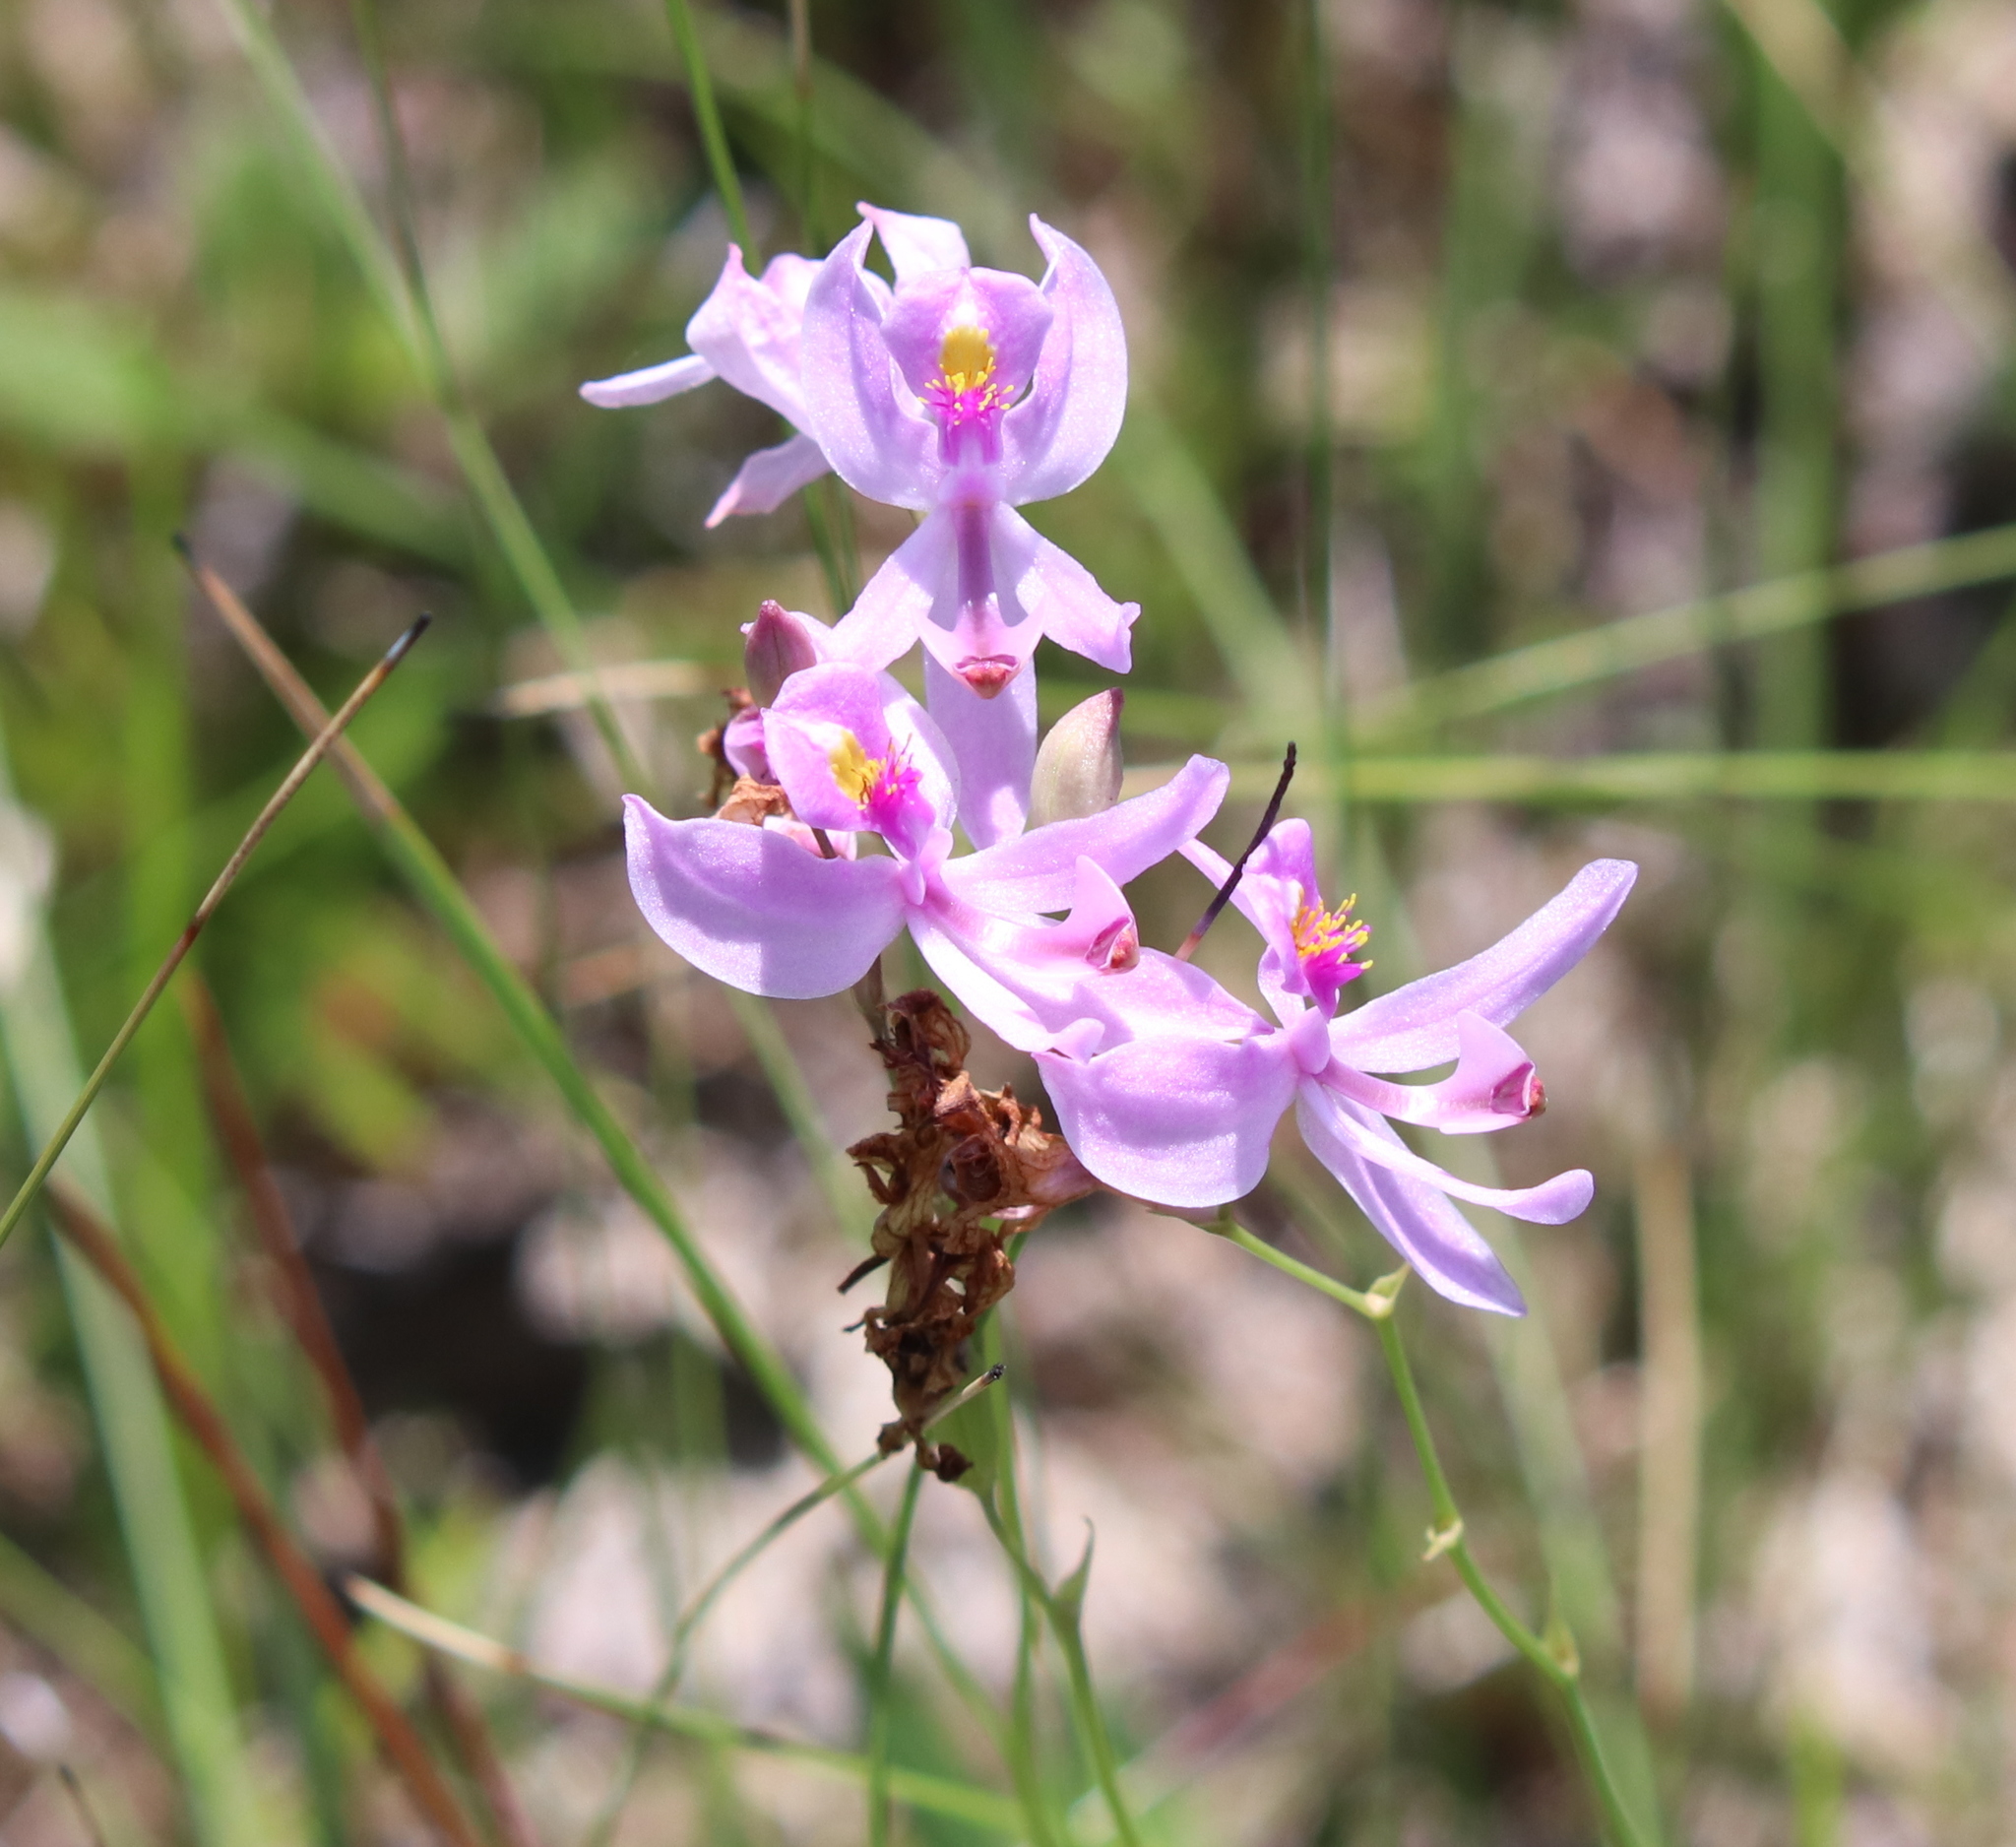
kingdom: Plantae
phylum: Tracheophyta
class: Liliopsida
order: Asparagales
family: Orchidaceae
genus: Calopogon
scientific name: Calopogon pallidus
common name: Pale grasspink
